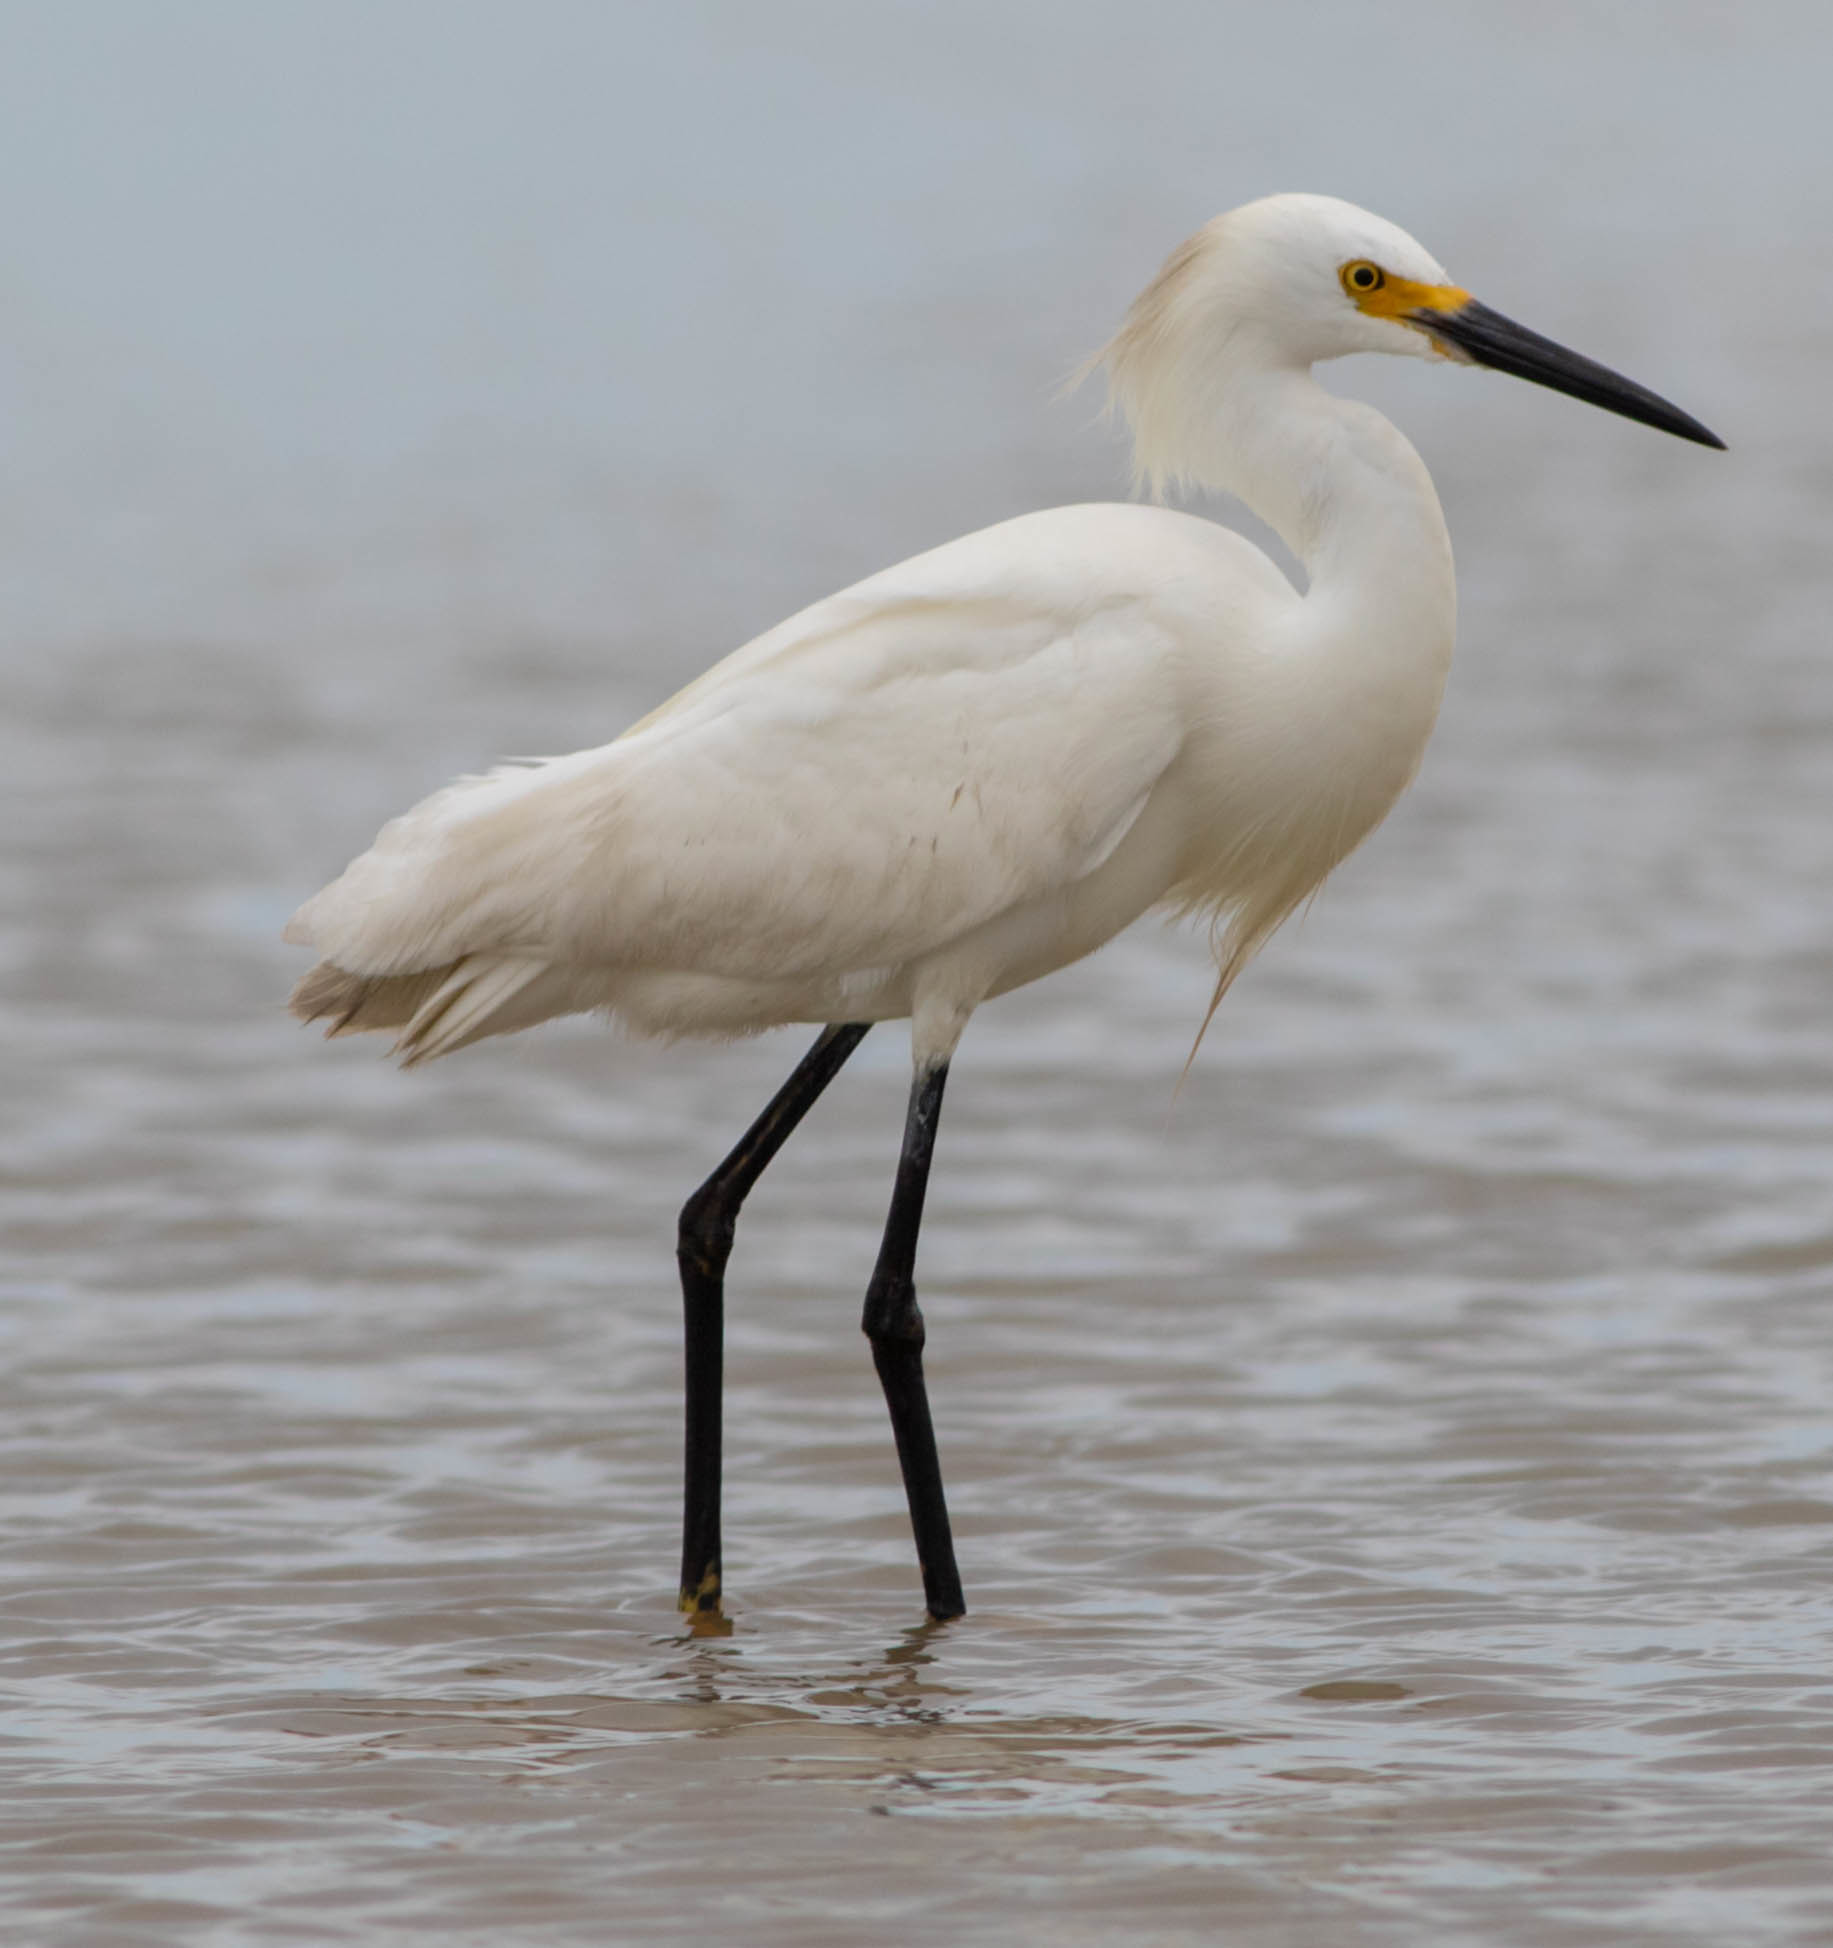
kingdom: Animalia
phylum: Chordata
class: Aves
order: Pelecaniformes
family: Ardeidae
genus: Egretta
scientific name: Egretta thula
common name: Snowy egret
